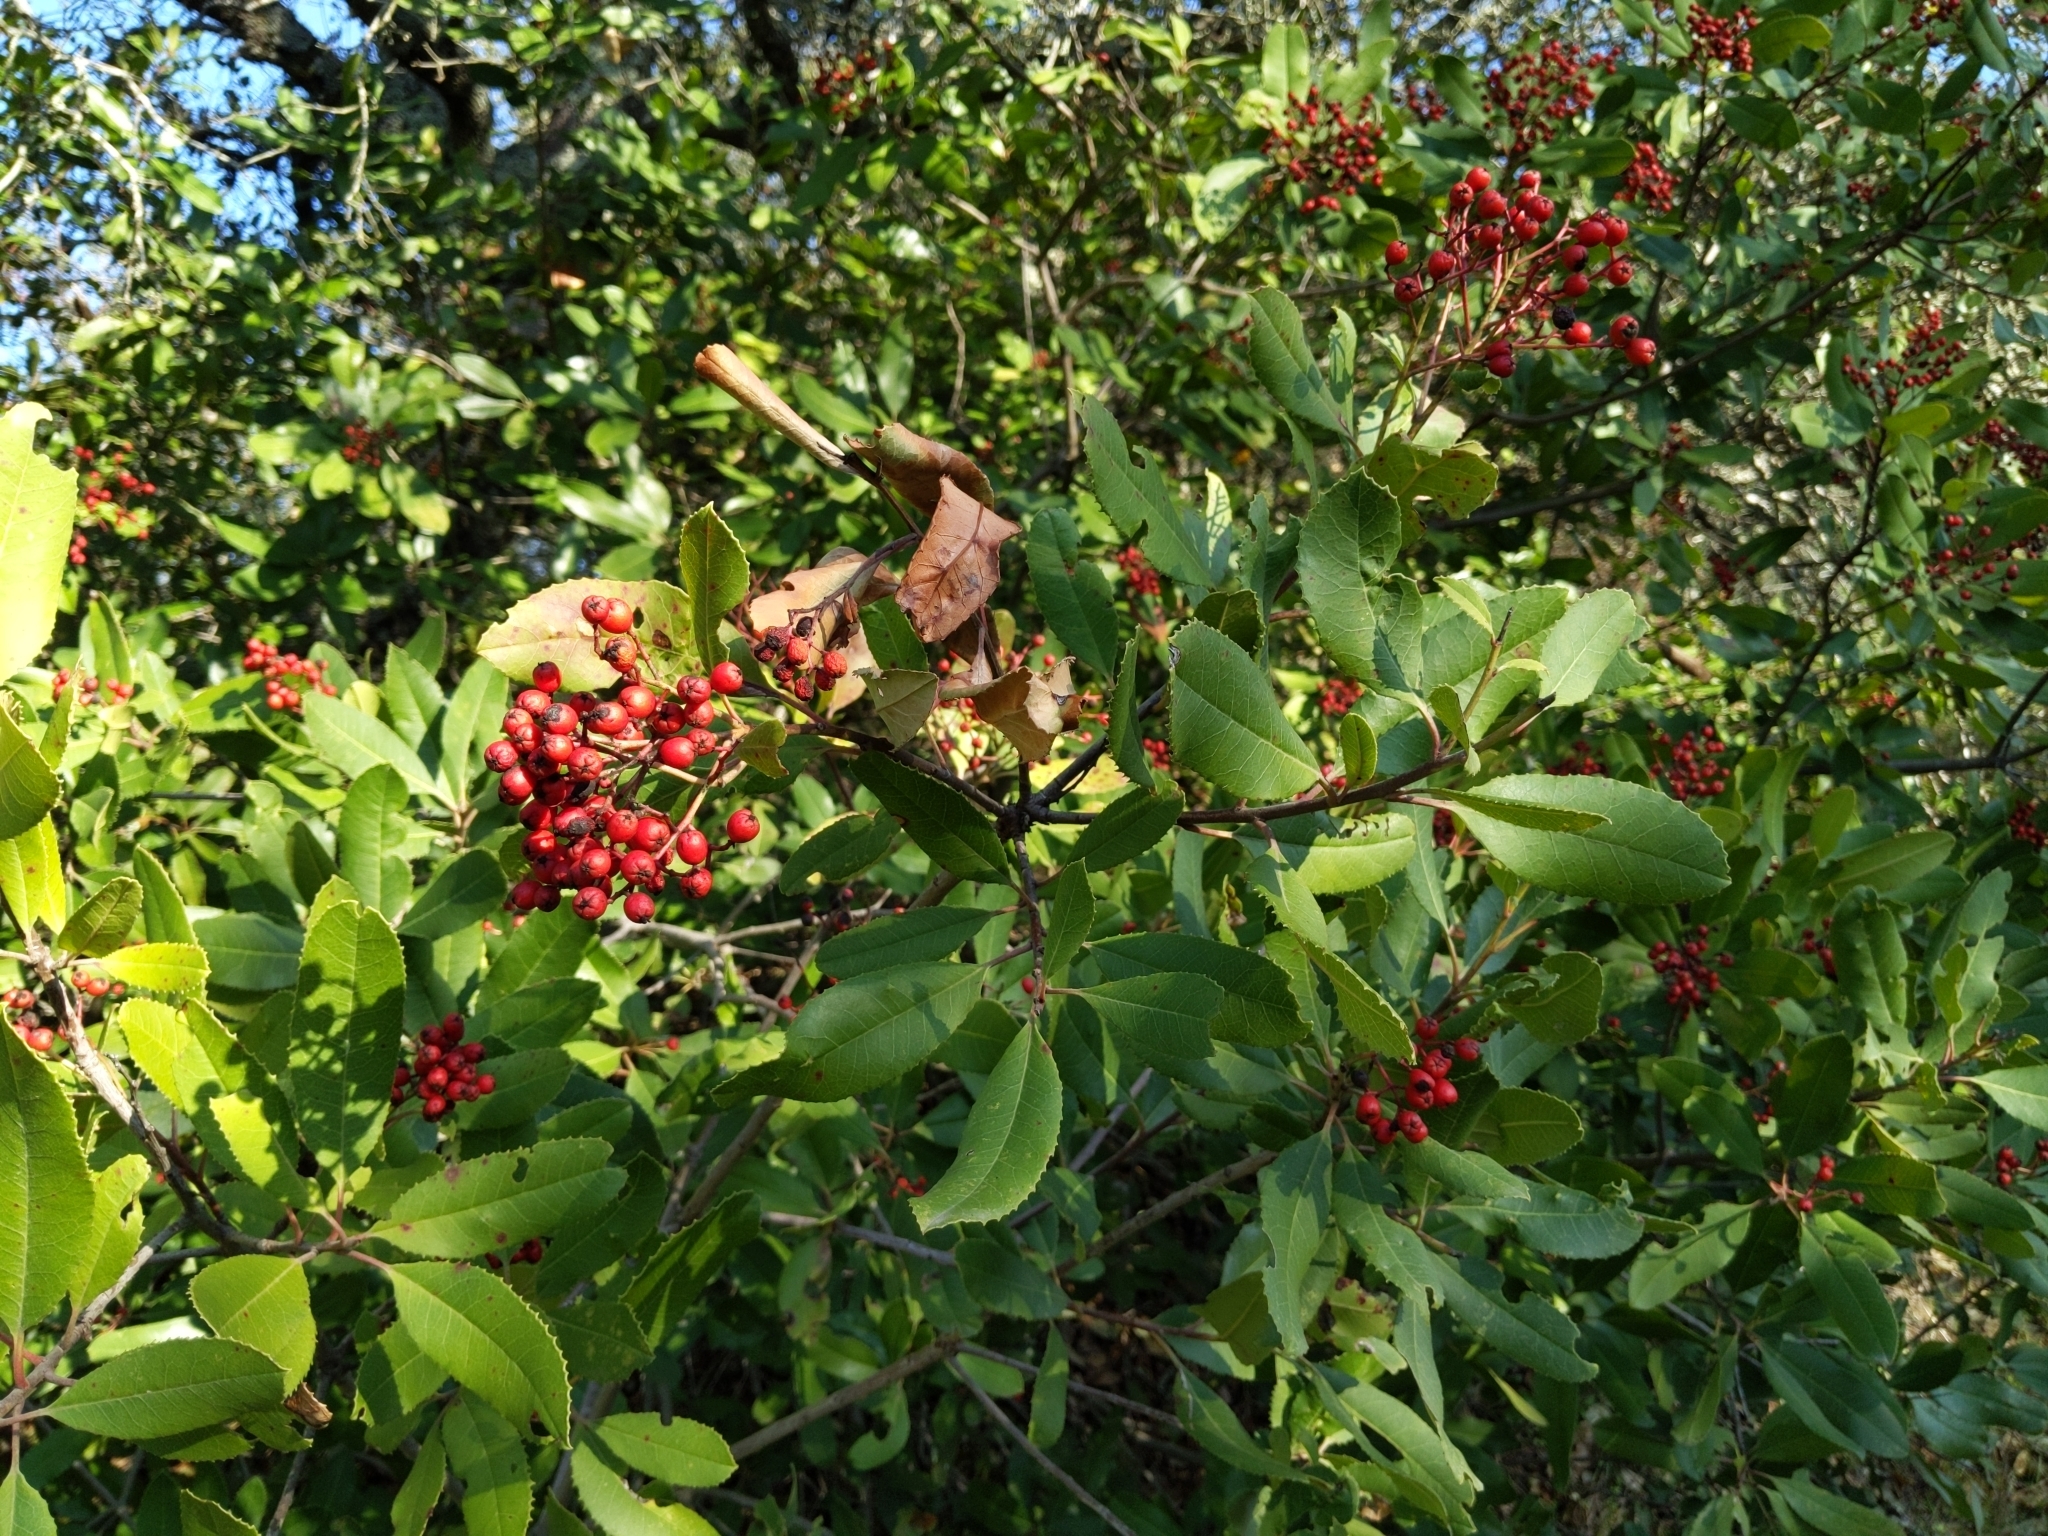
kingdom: Plantae
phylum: Tracheophyta
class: Magnoliopsida
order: Rosales
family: Rosaceae
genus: Heteromeles
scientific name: Heteromeles arbutifolia
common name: California-holly
